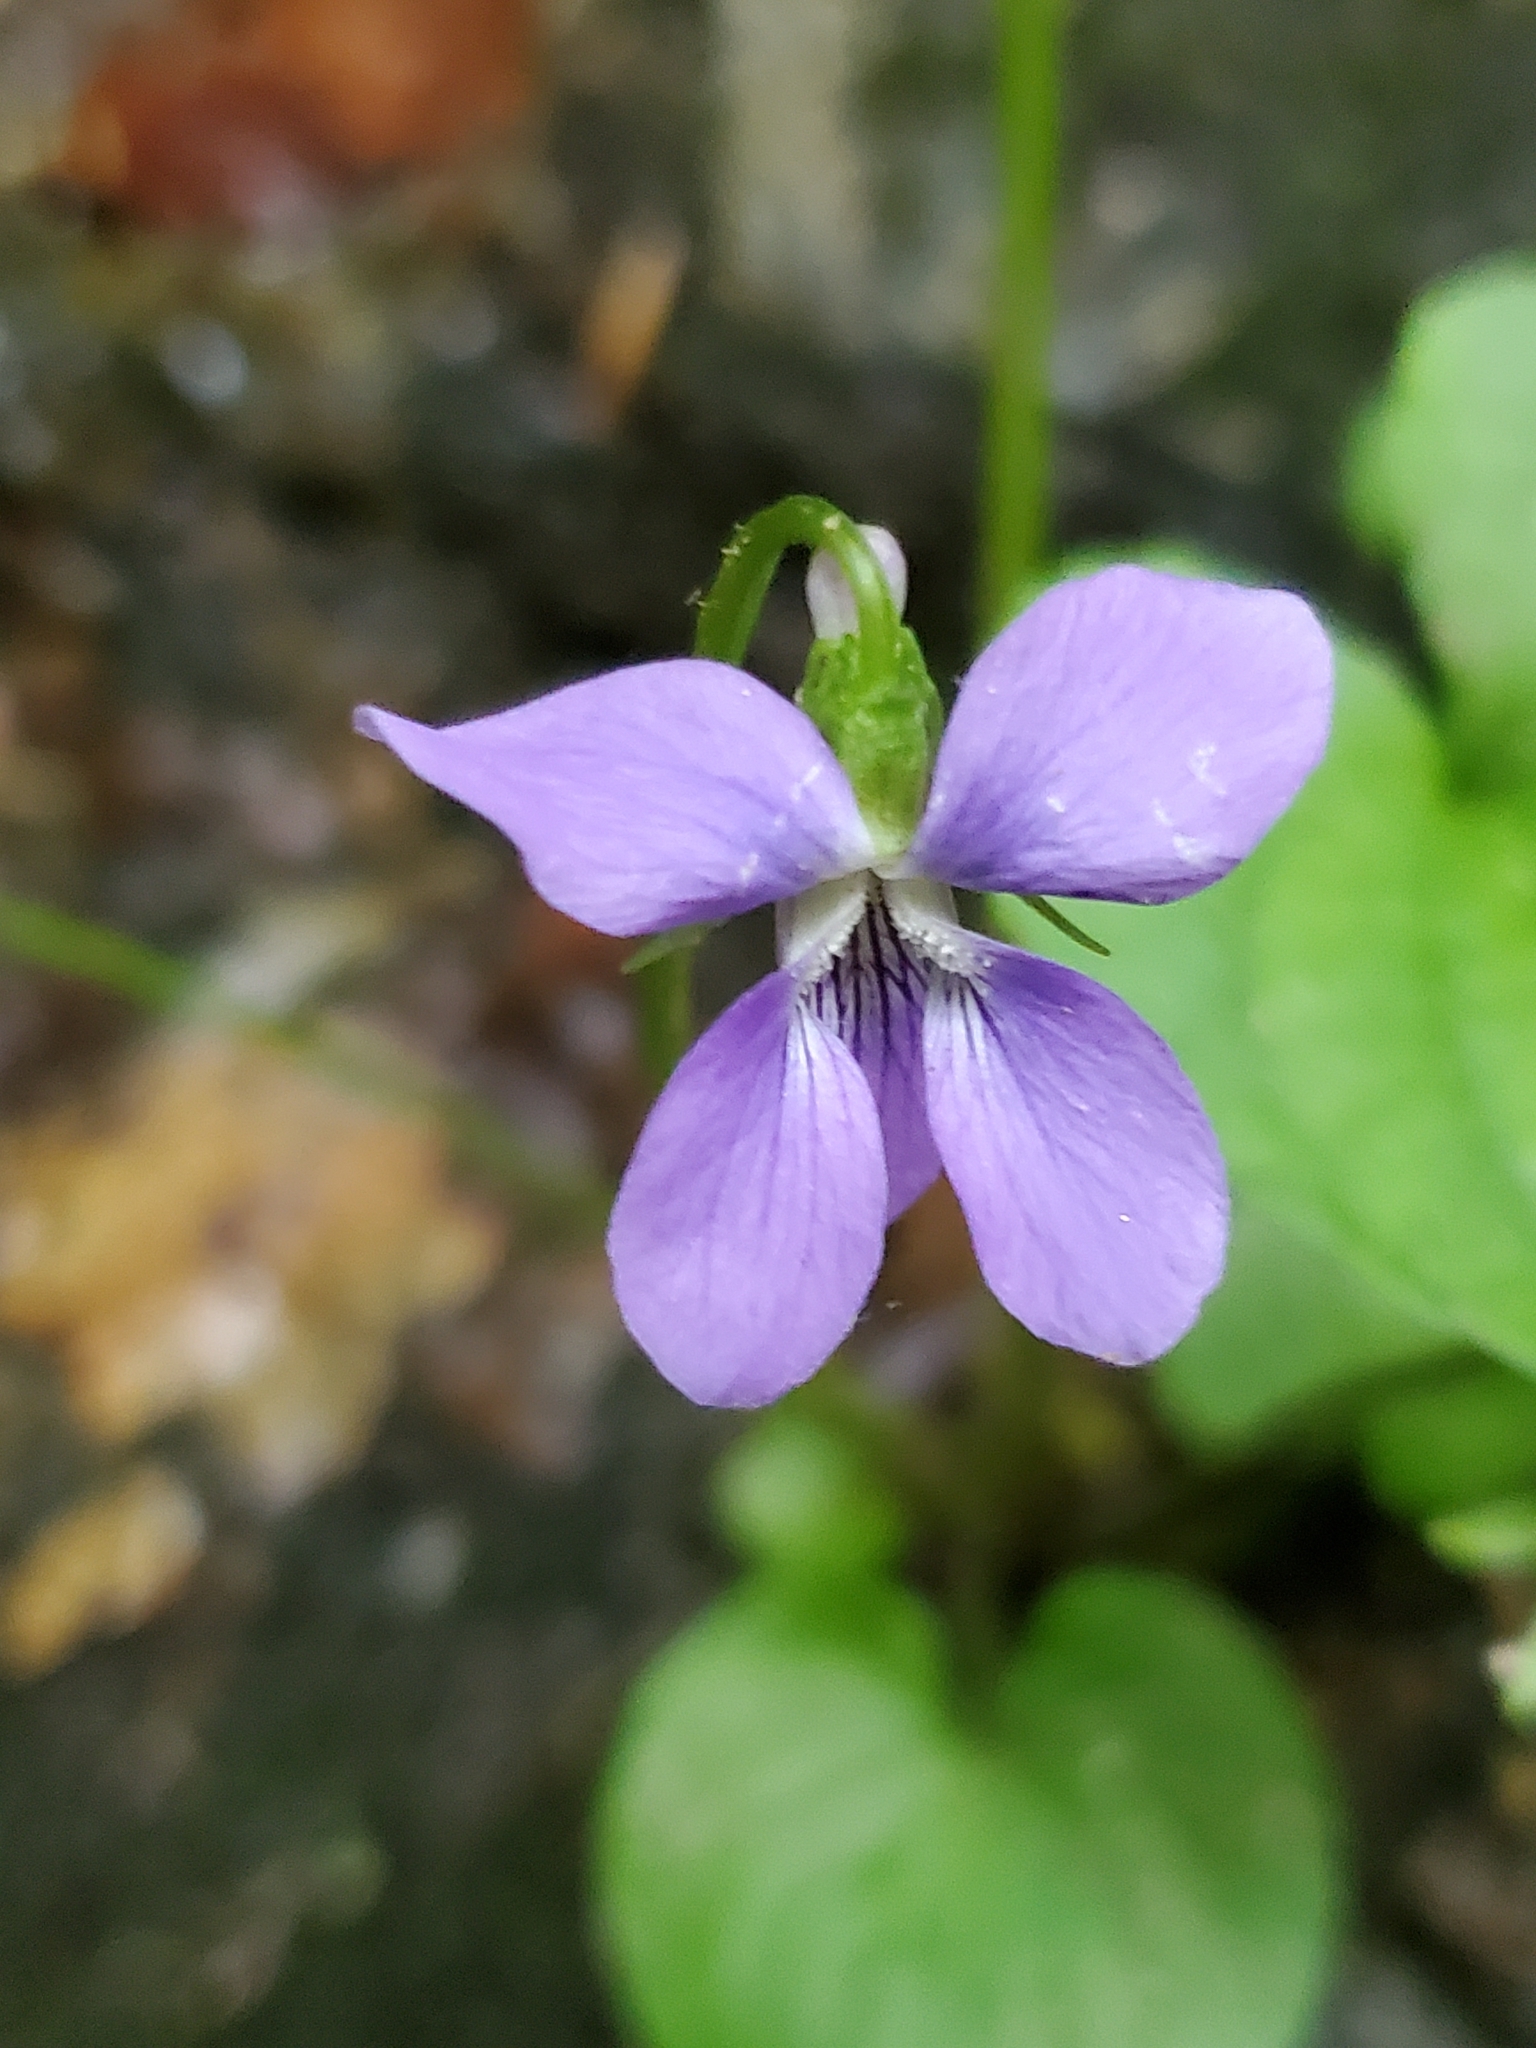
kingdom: Plantae
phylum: Tracheophyta
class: Magnoliopsida
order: Malpighiales
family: Violaceae
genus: Viola
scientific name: Viola cucullata
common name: Marsh blue violet
